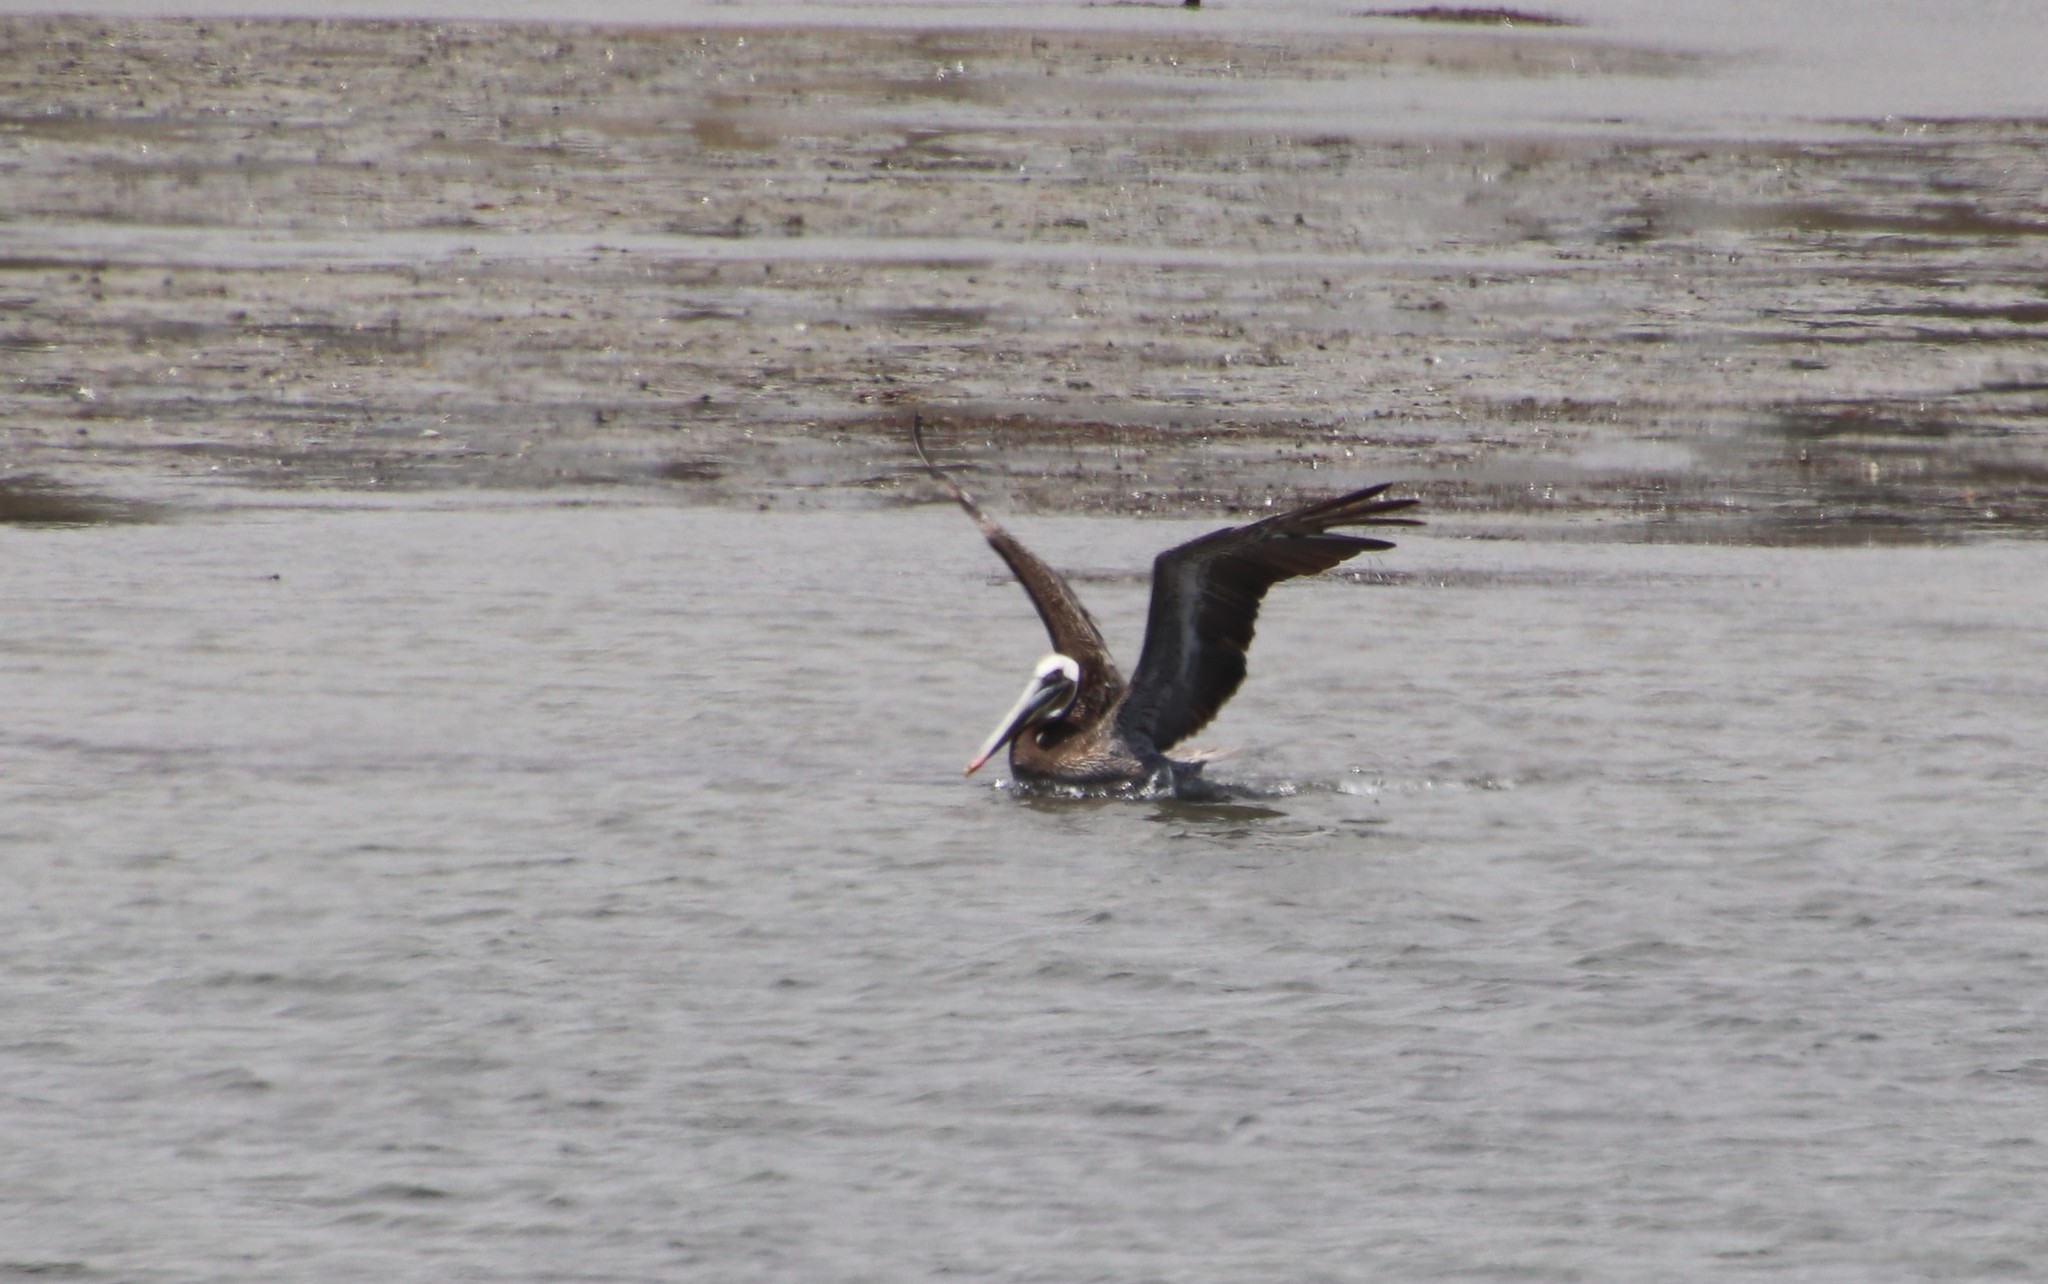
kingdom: Animalia
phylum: Chordata
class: Aves
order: Pelecaniformes
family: Pelecanidae
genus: Pelecanus
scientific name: Pelecanus occidentalis
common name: Brown pelican
